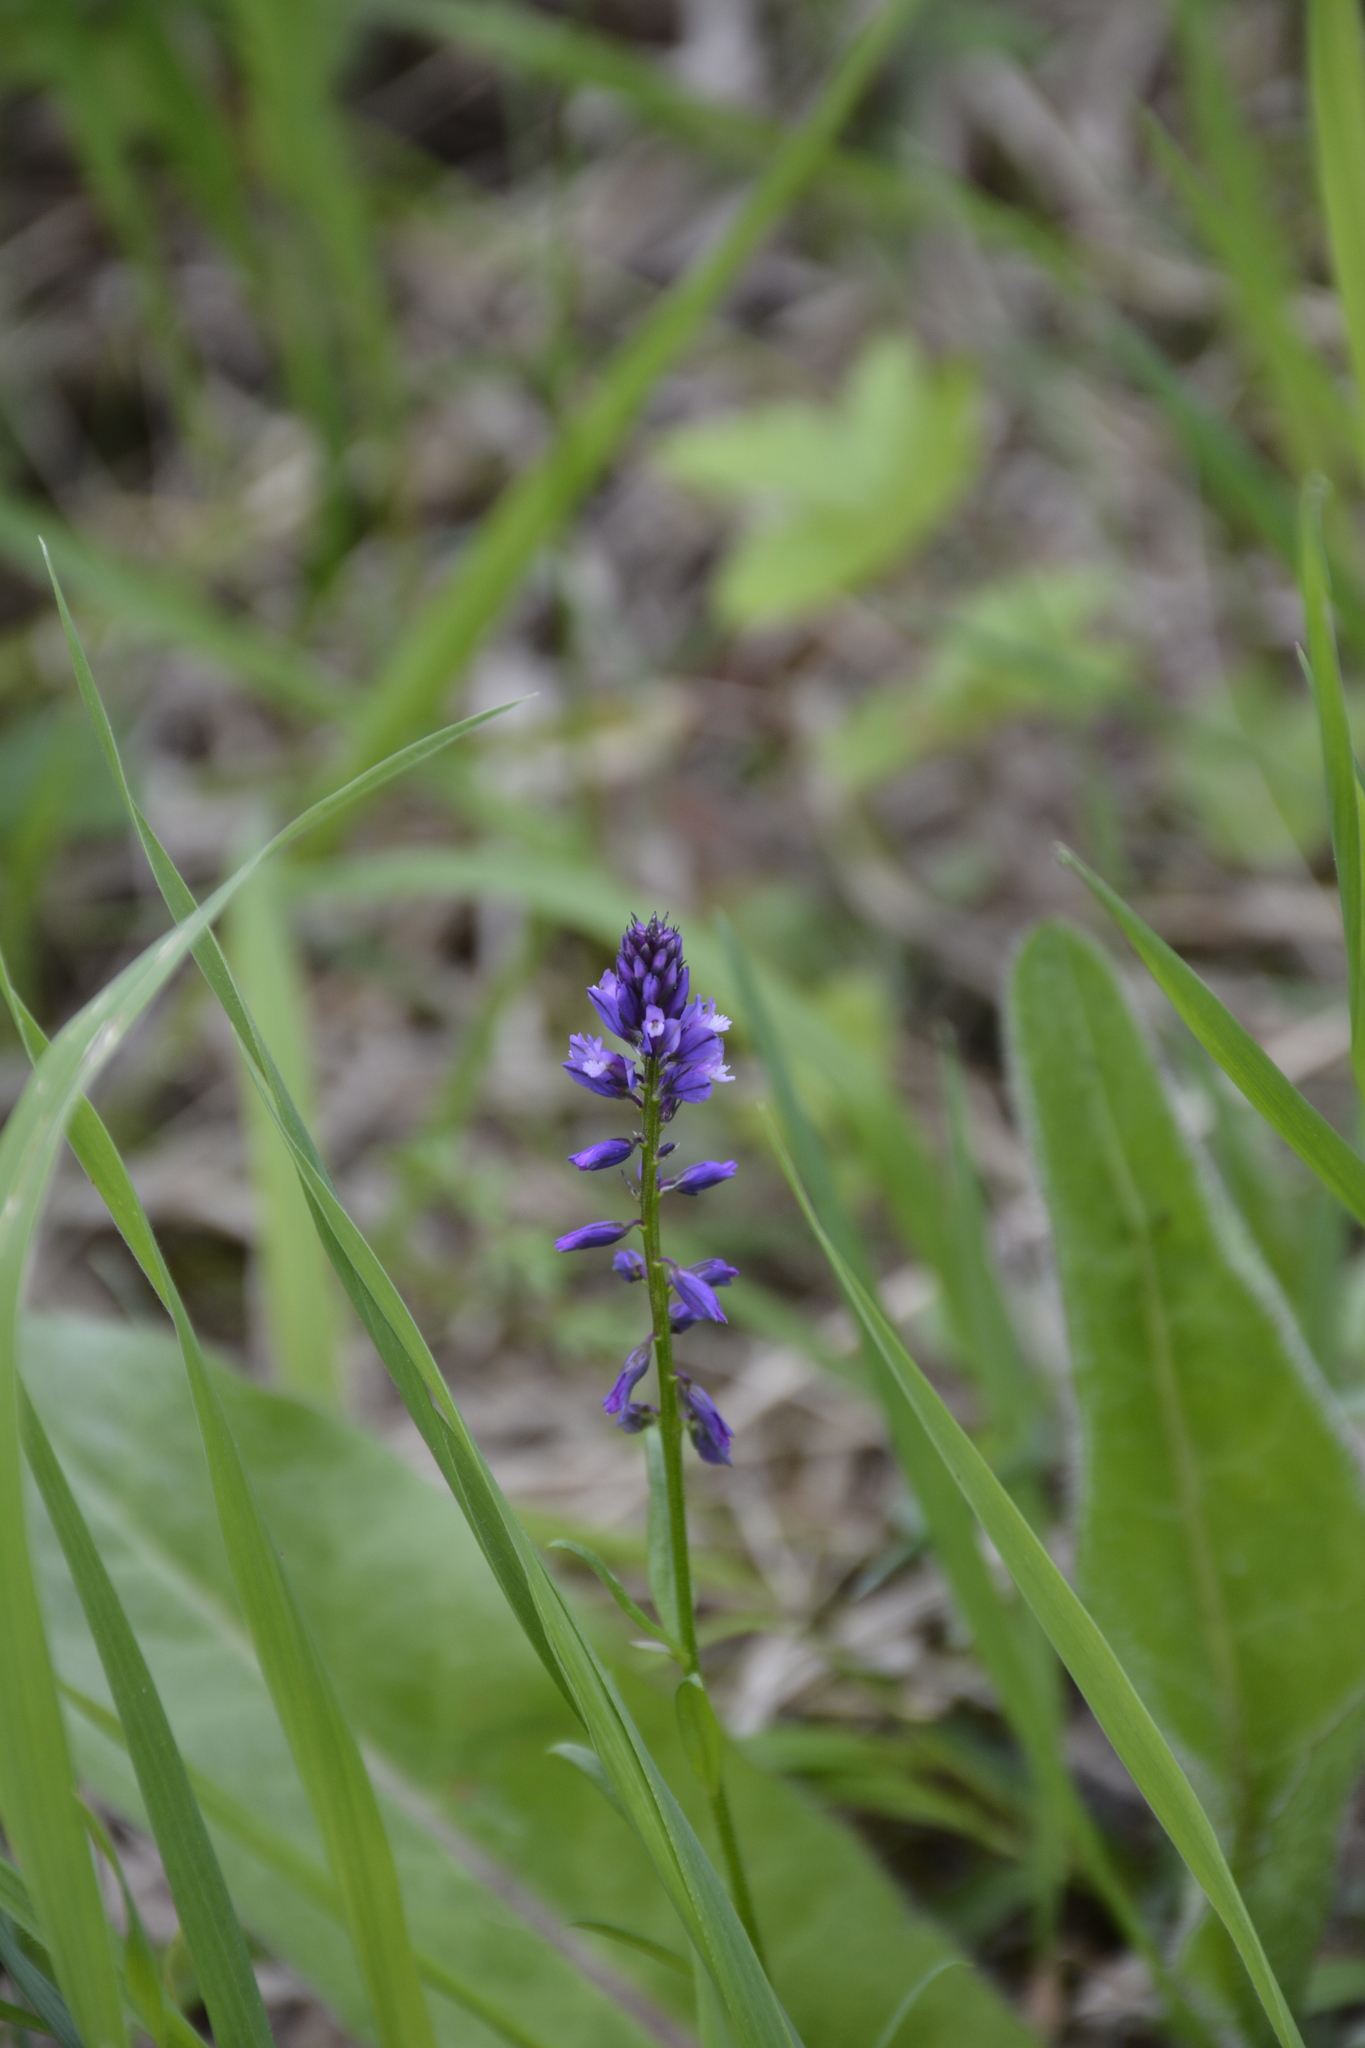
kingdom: Plantae
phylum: Tracheophyta
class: Magnoliopsida
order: Fabales
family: Polygalaceae
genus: Polygala
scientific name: Polygala comosa
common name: Tufted milkwort
